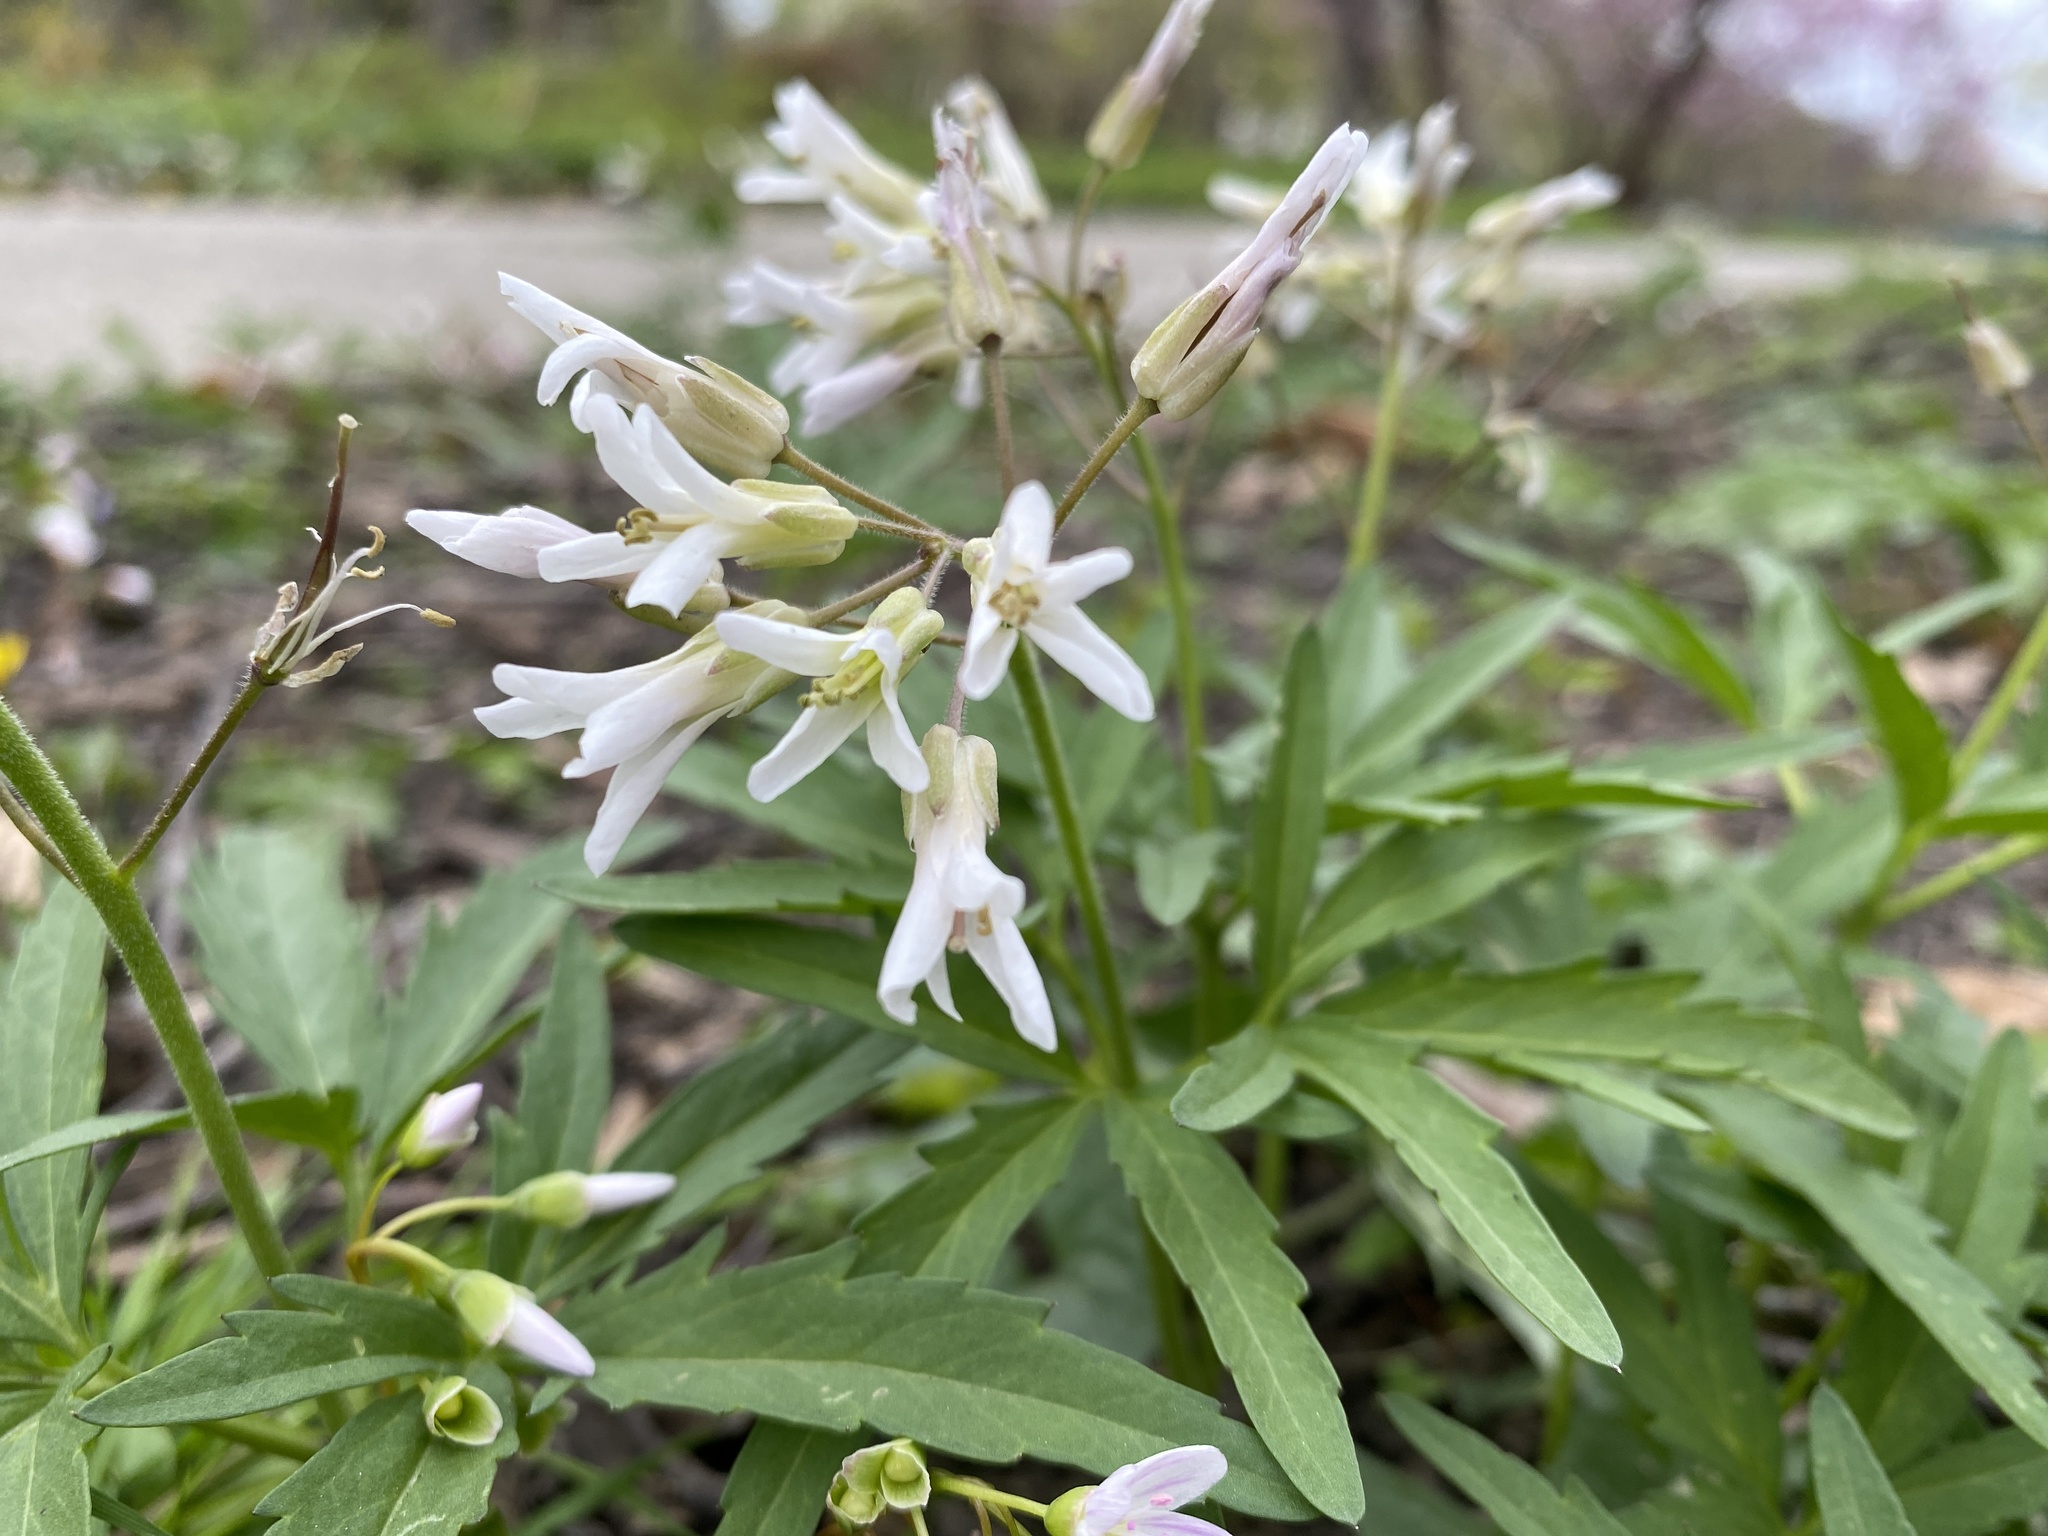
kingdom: Plantae
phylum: Tracheophyta
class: Magnoliopsida
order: Brassicales
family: Brassicaceae
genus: Cardamine
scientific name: Cardamine concatenata
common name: Cut-leaf toothcup
